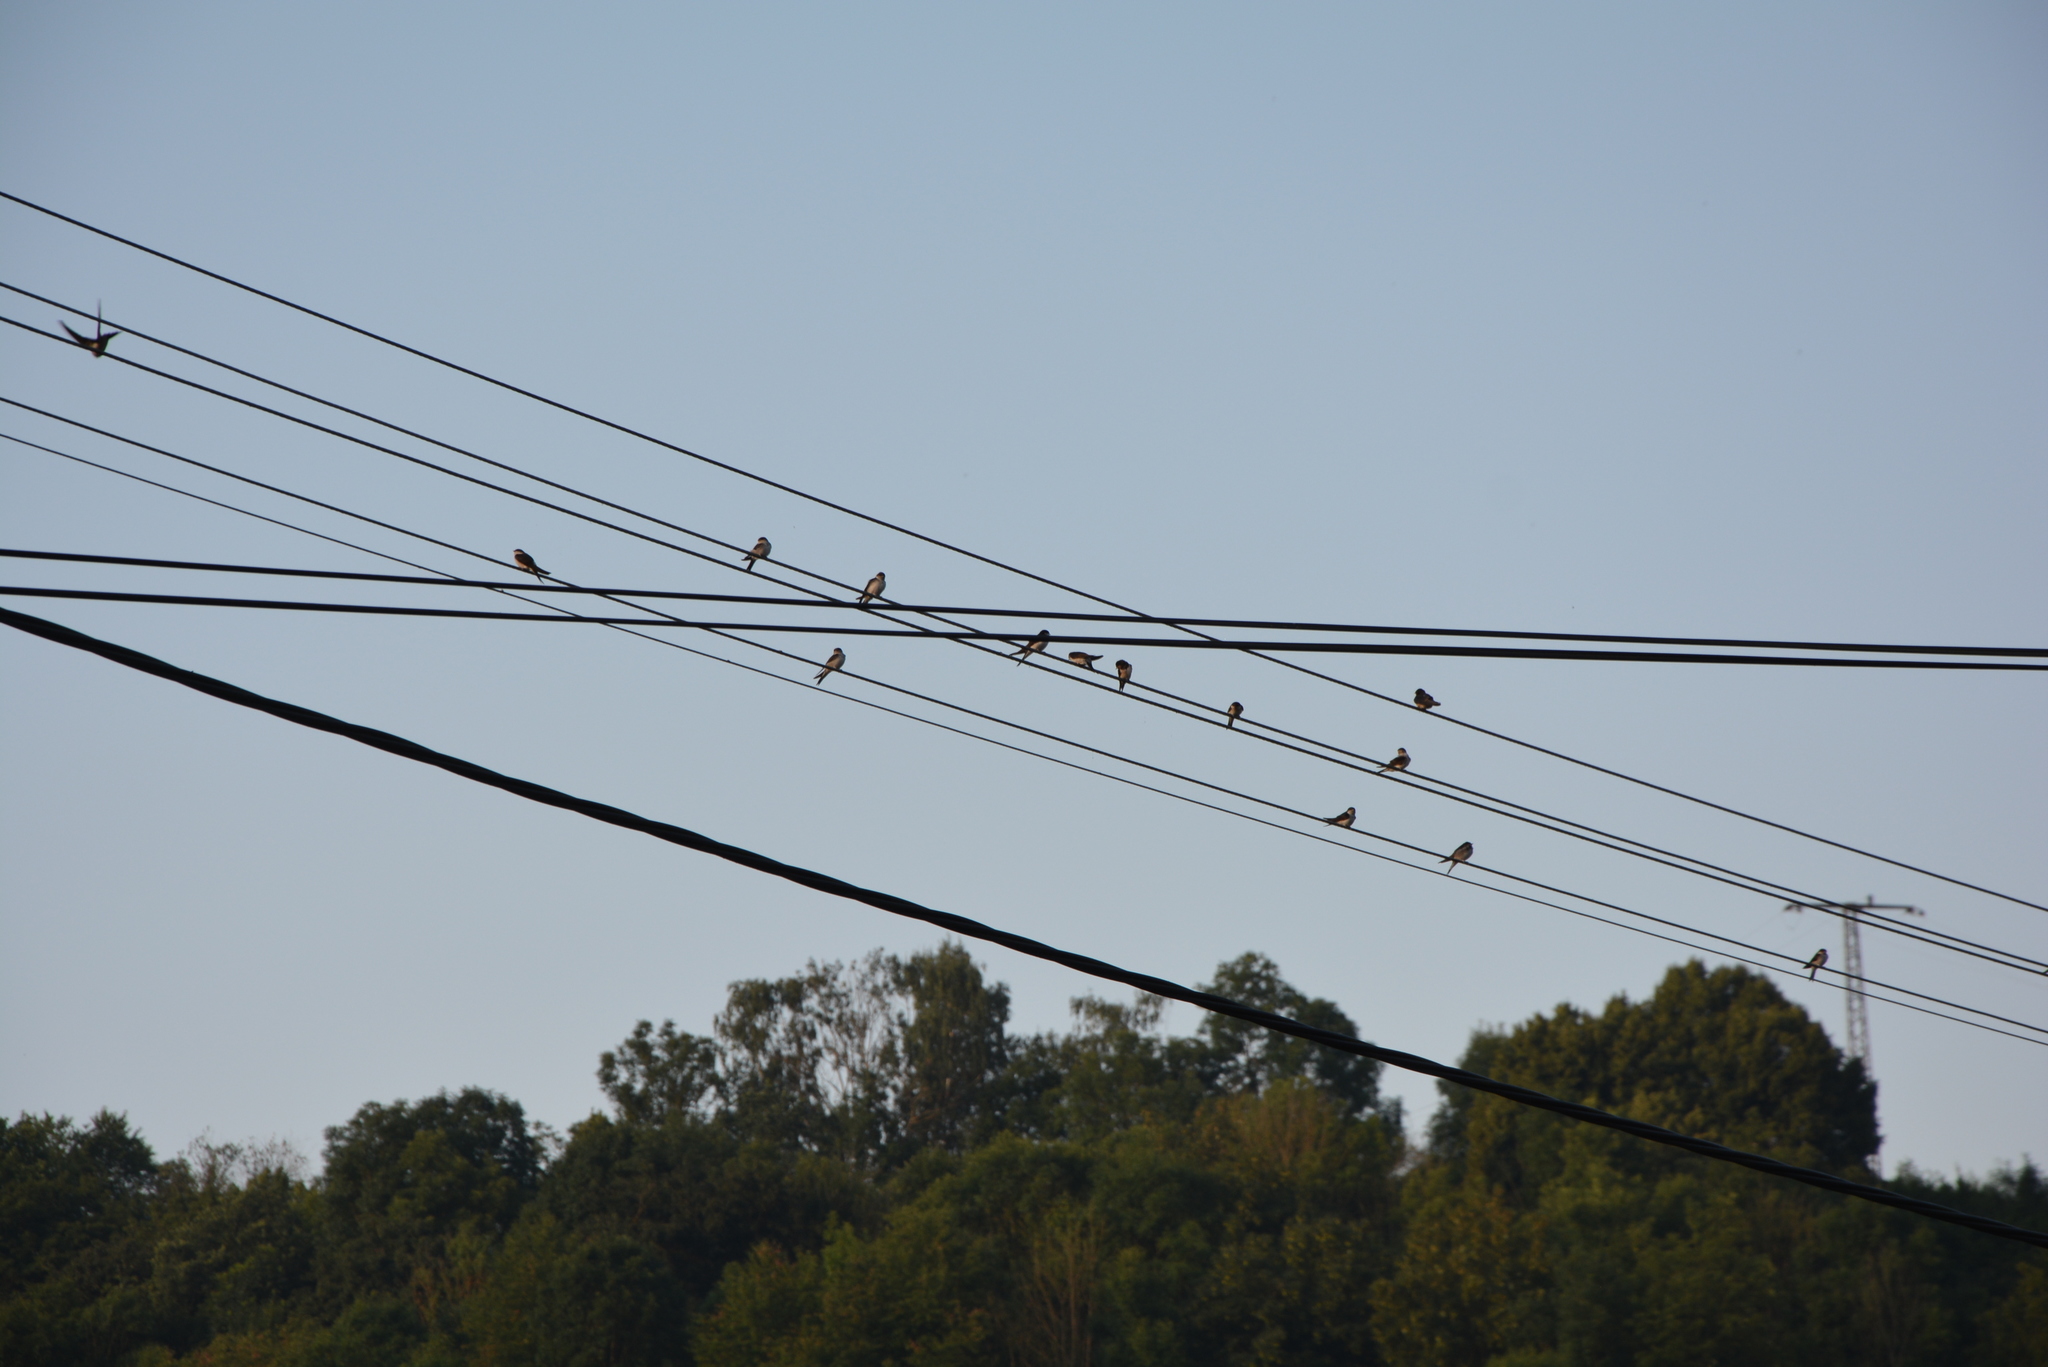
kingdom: Animalia
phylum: Chordata
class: Aves
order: Passeriformes
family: Hirundinidae
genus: Hirundo
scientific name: Hirundo rustica
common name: Barn swallow
